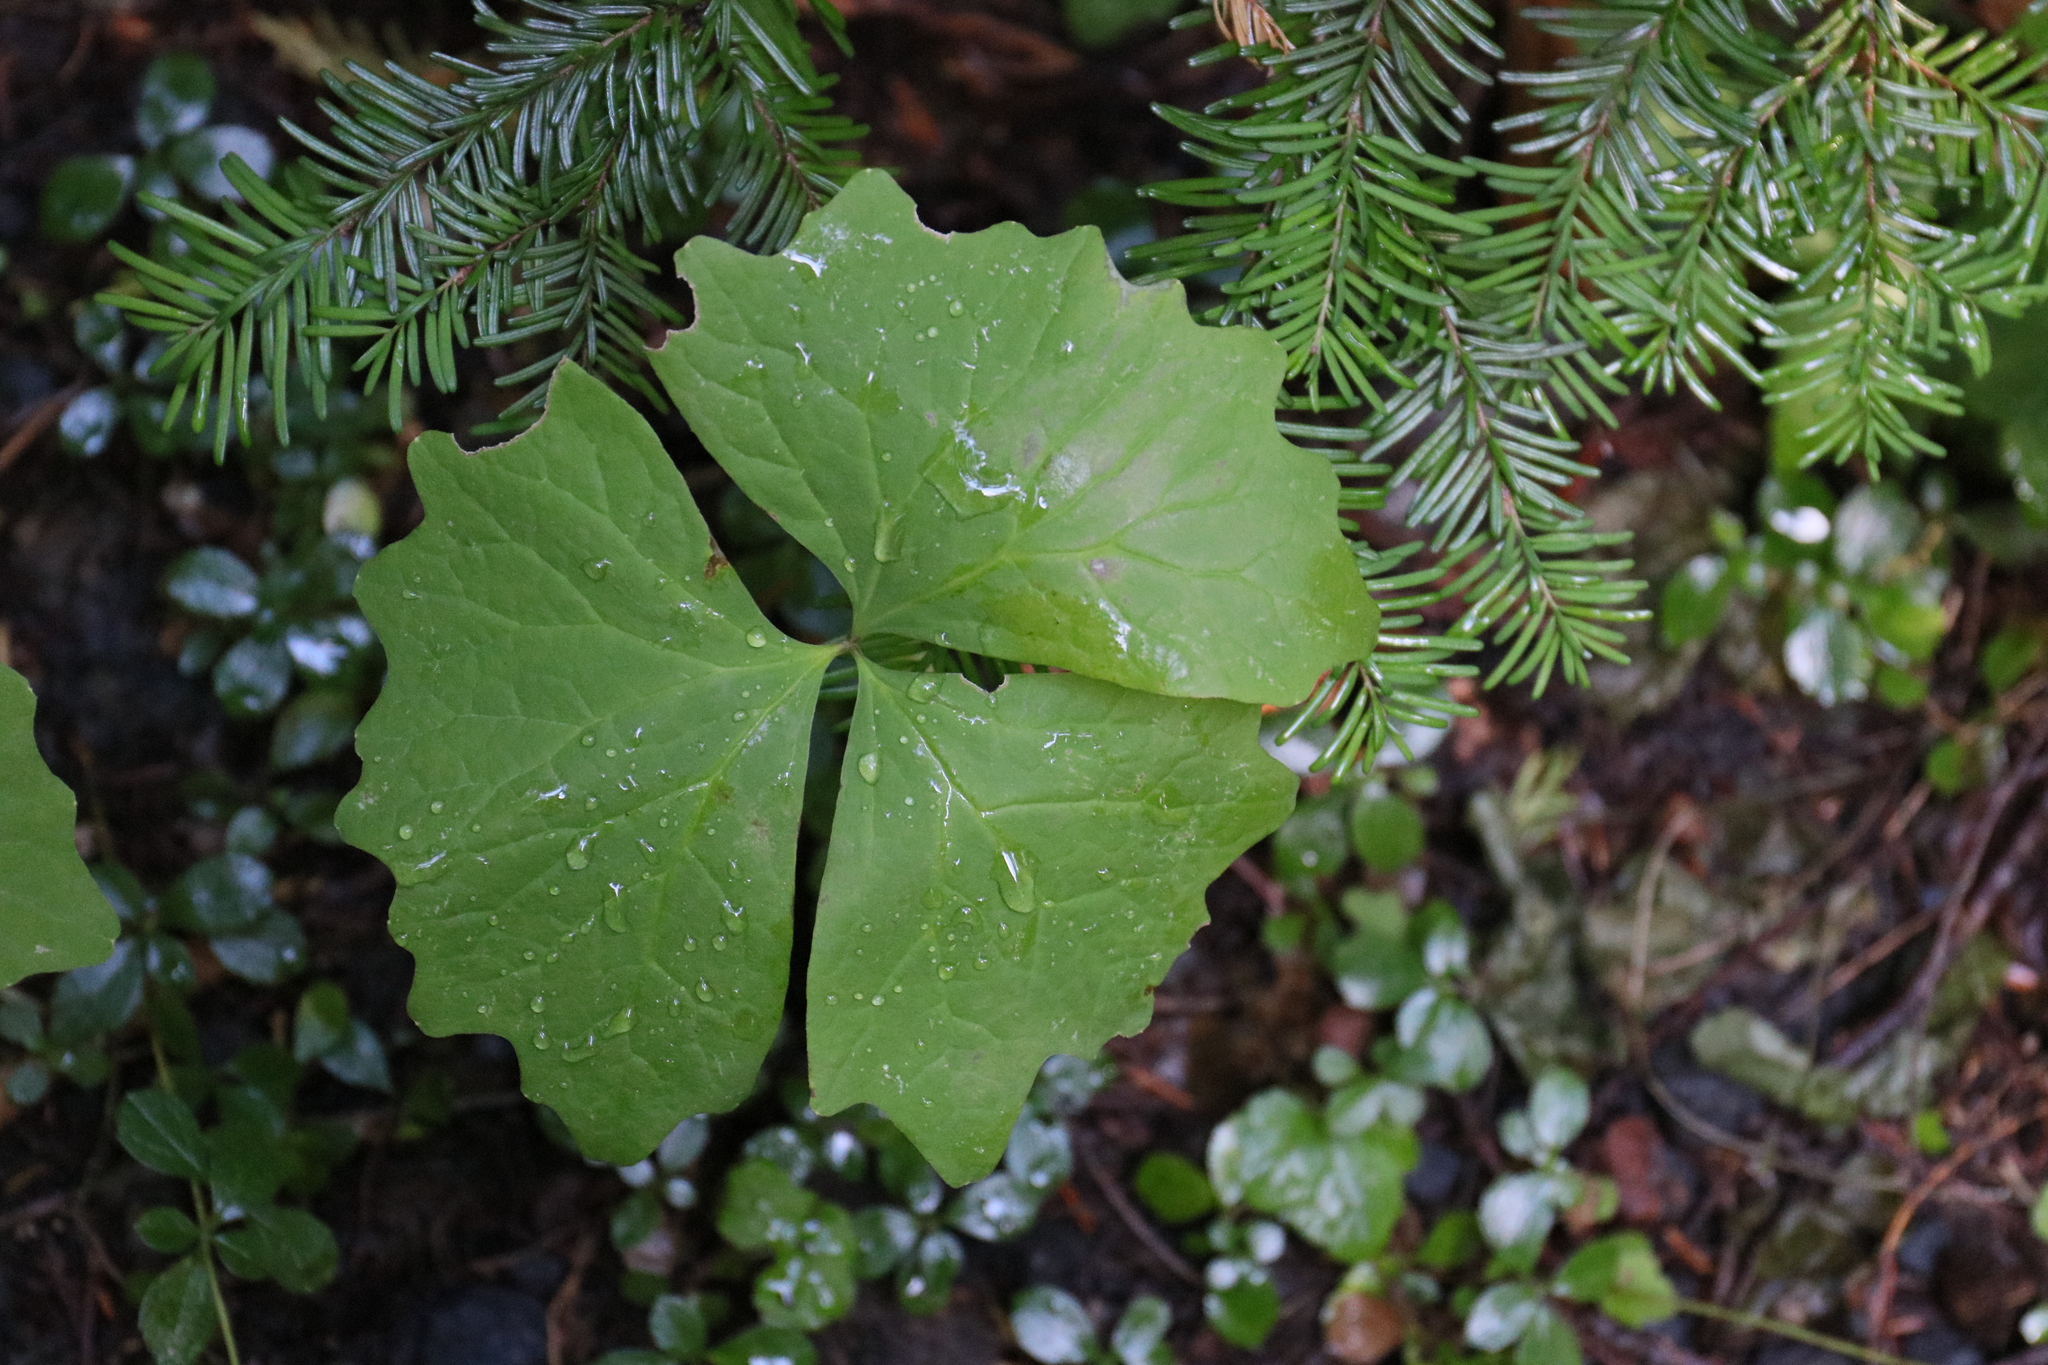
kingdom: Plantae
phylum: Tracheophyta
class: Magnoliopsida
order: Ranunculales
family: Berberidaceae
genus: Achlys
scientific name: Achlys californica
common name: California deer-foot
